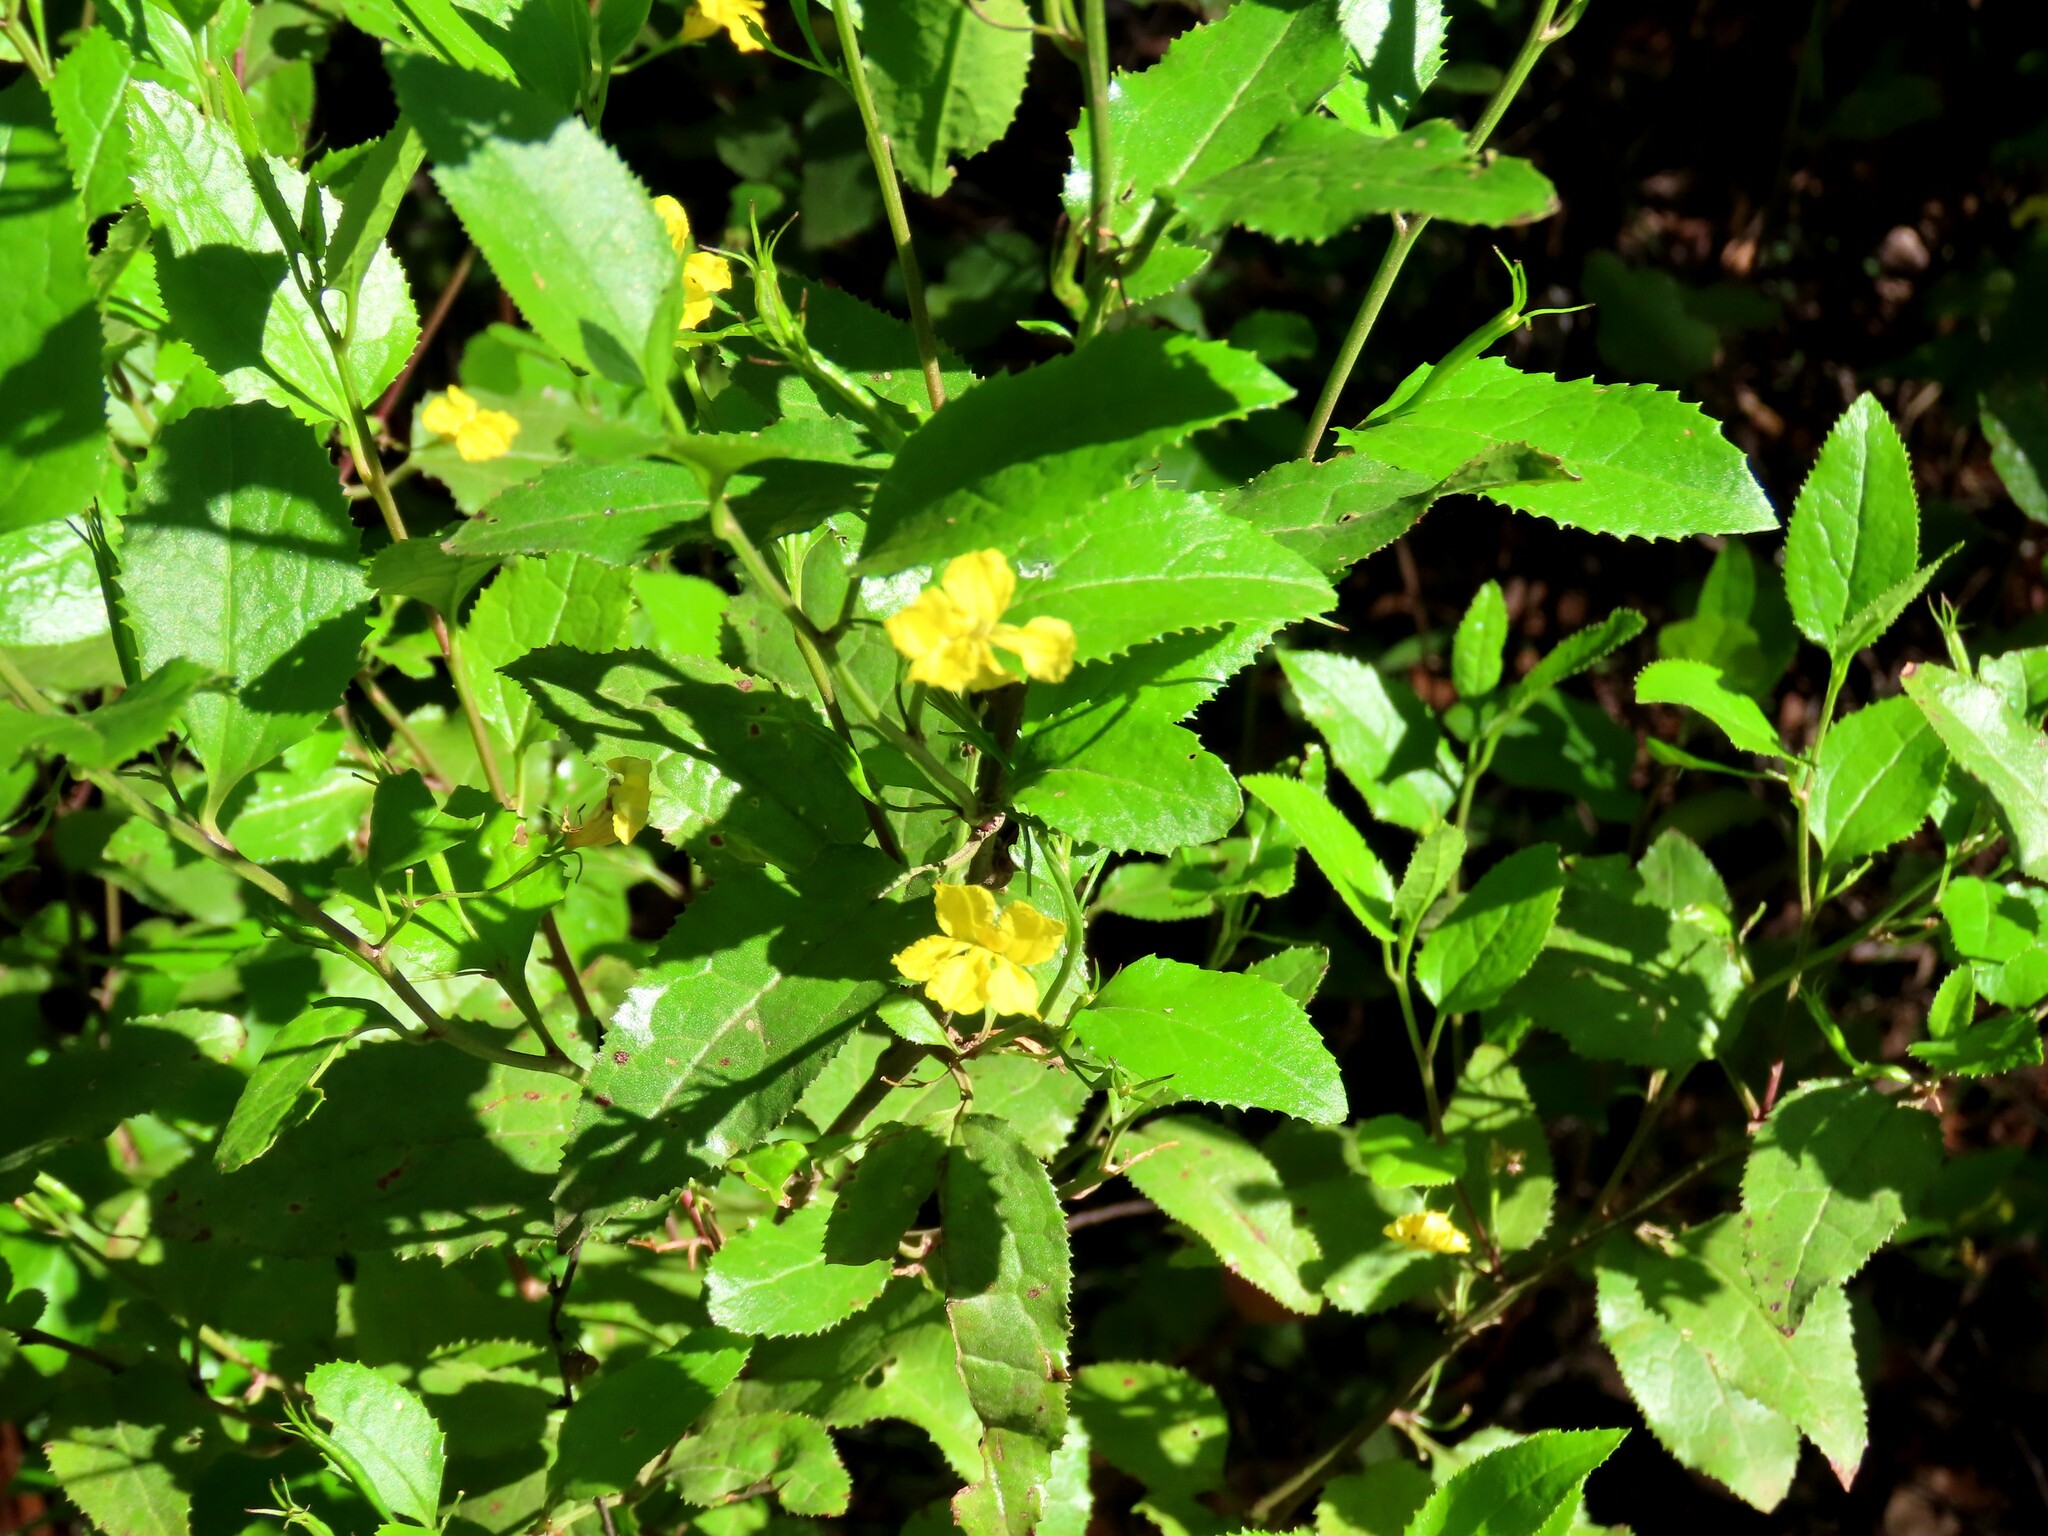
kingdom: Plantae
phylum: Tracheophyta
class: Magnoliopsida
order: Asterales
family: Goodeniaceae
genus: Goodenia
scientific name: Goodenia ovata
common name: Hop goodenia
